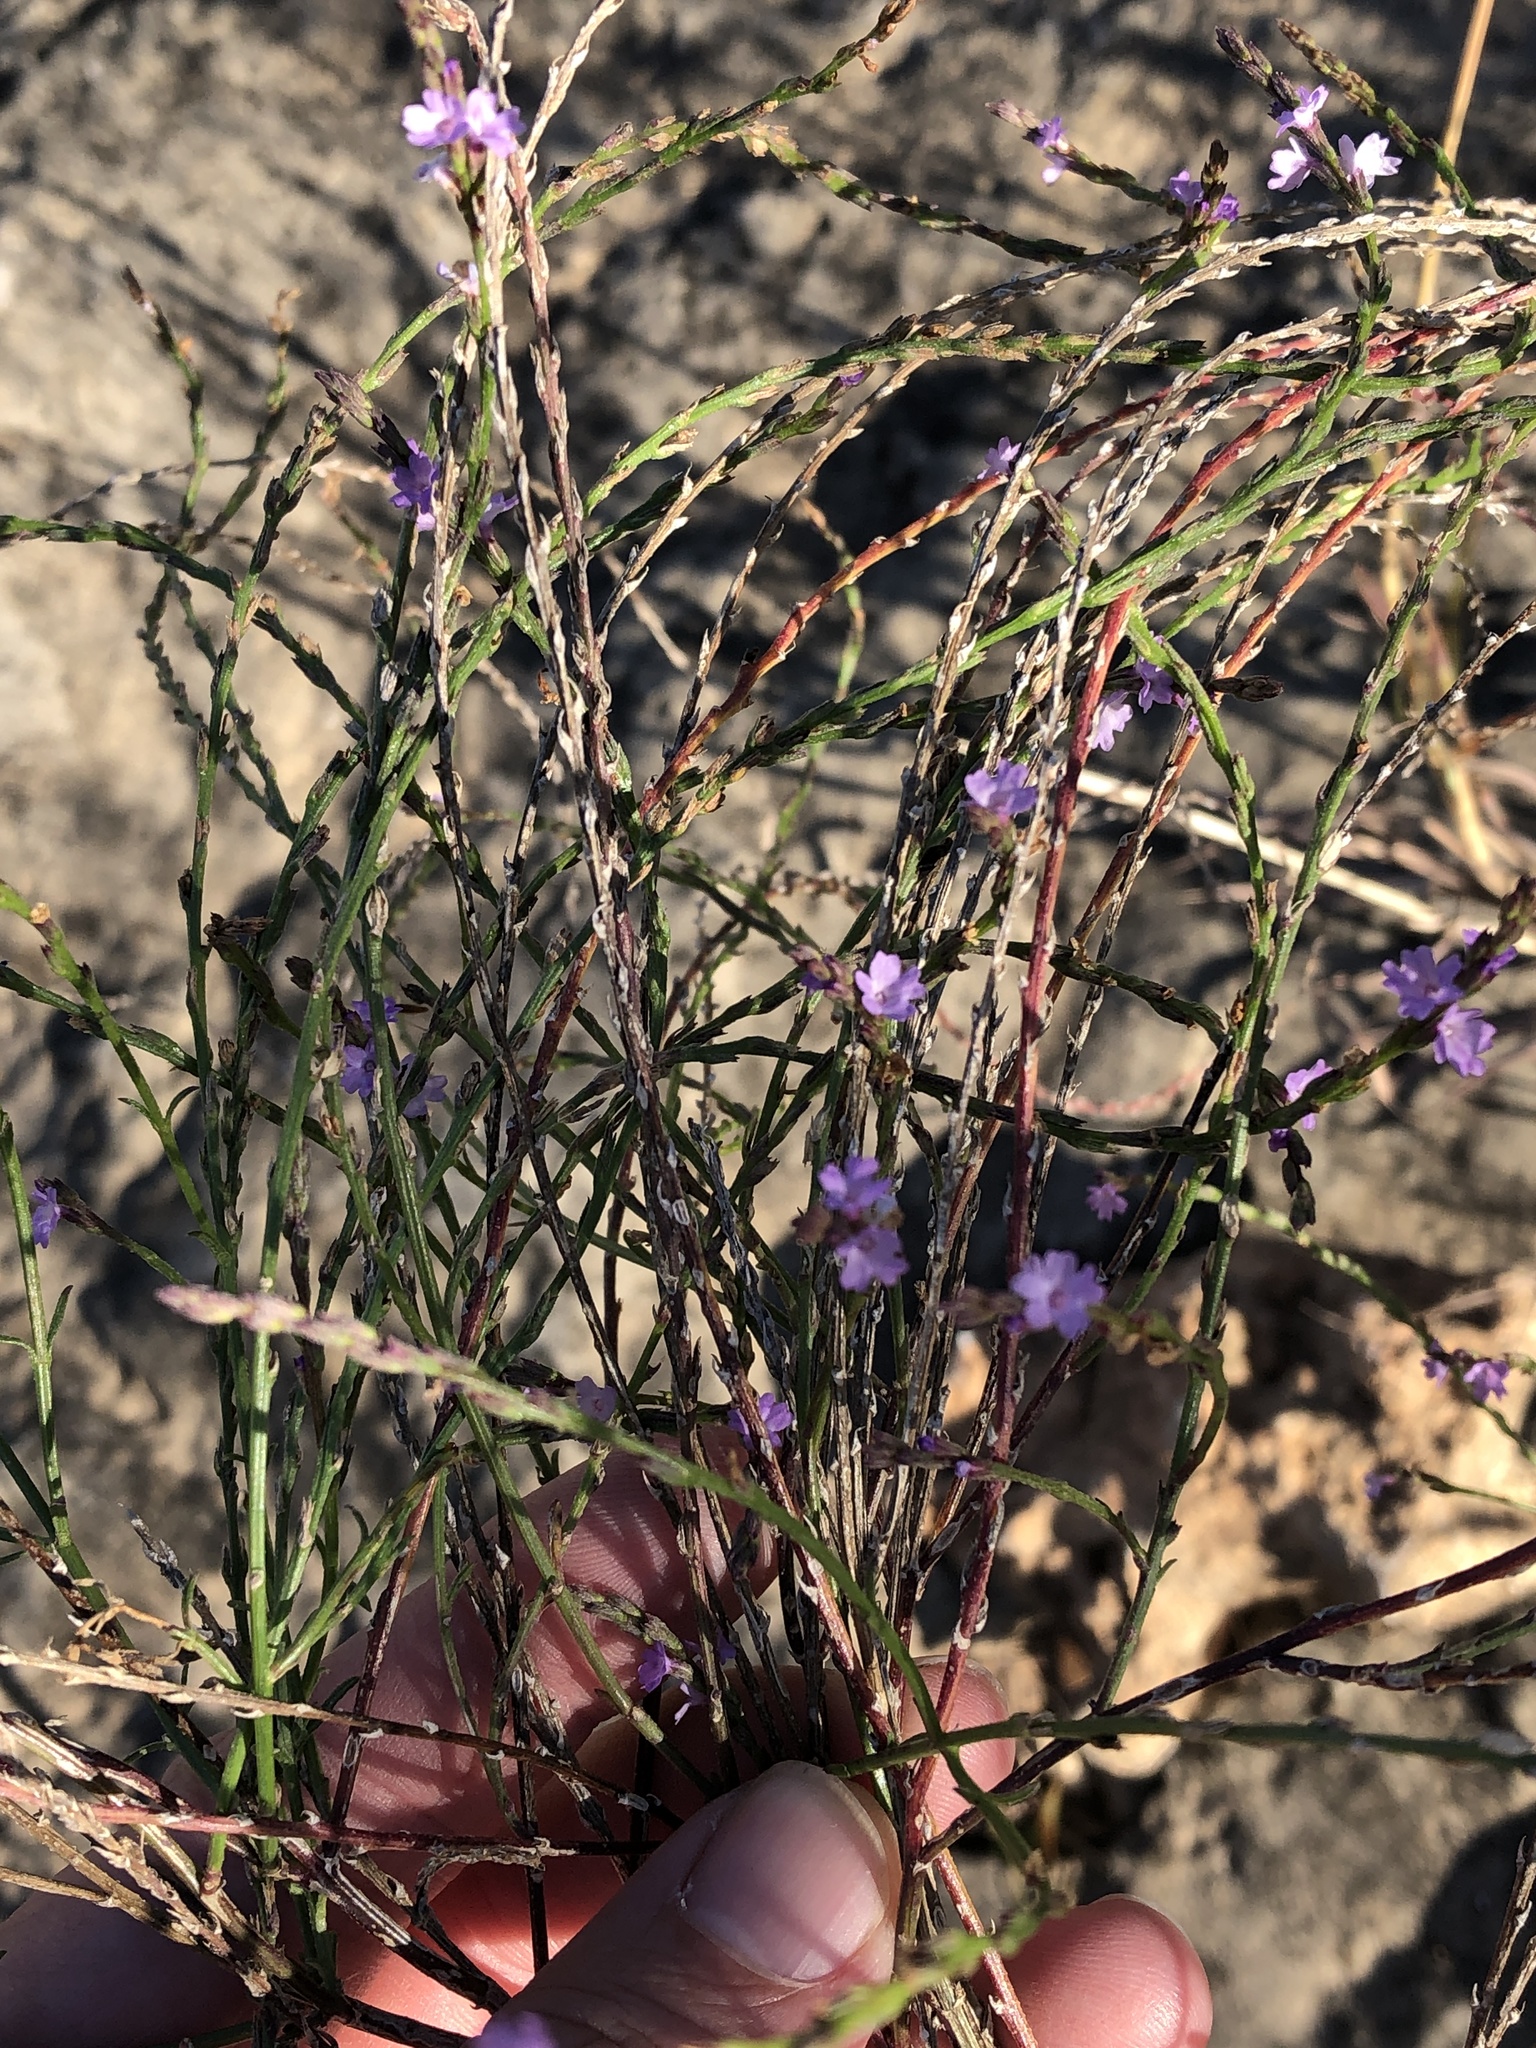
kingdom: Plantae
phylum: Tracheophyta
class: Magnoliopsida
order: Lamiales
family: Verbenaceae
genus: Verbena
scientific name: Verbena halei
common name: Texas vervain
